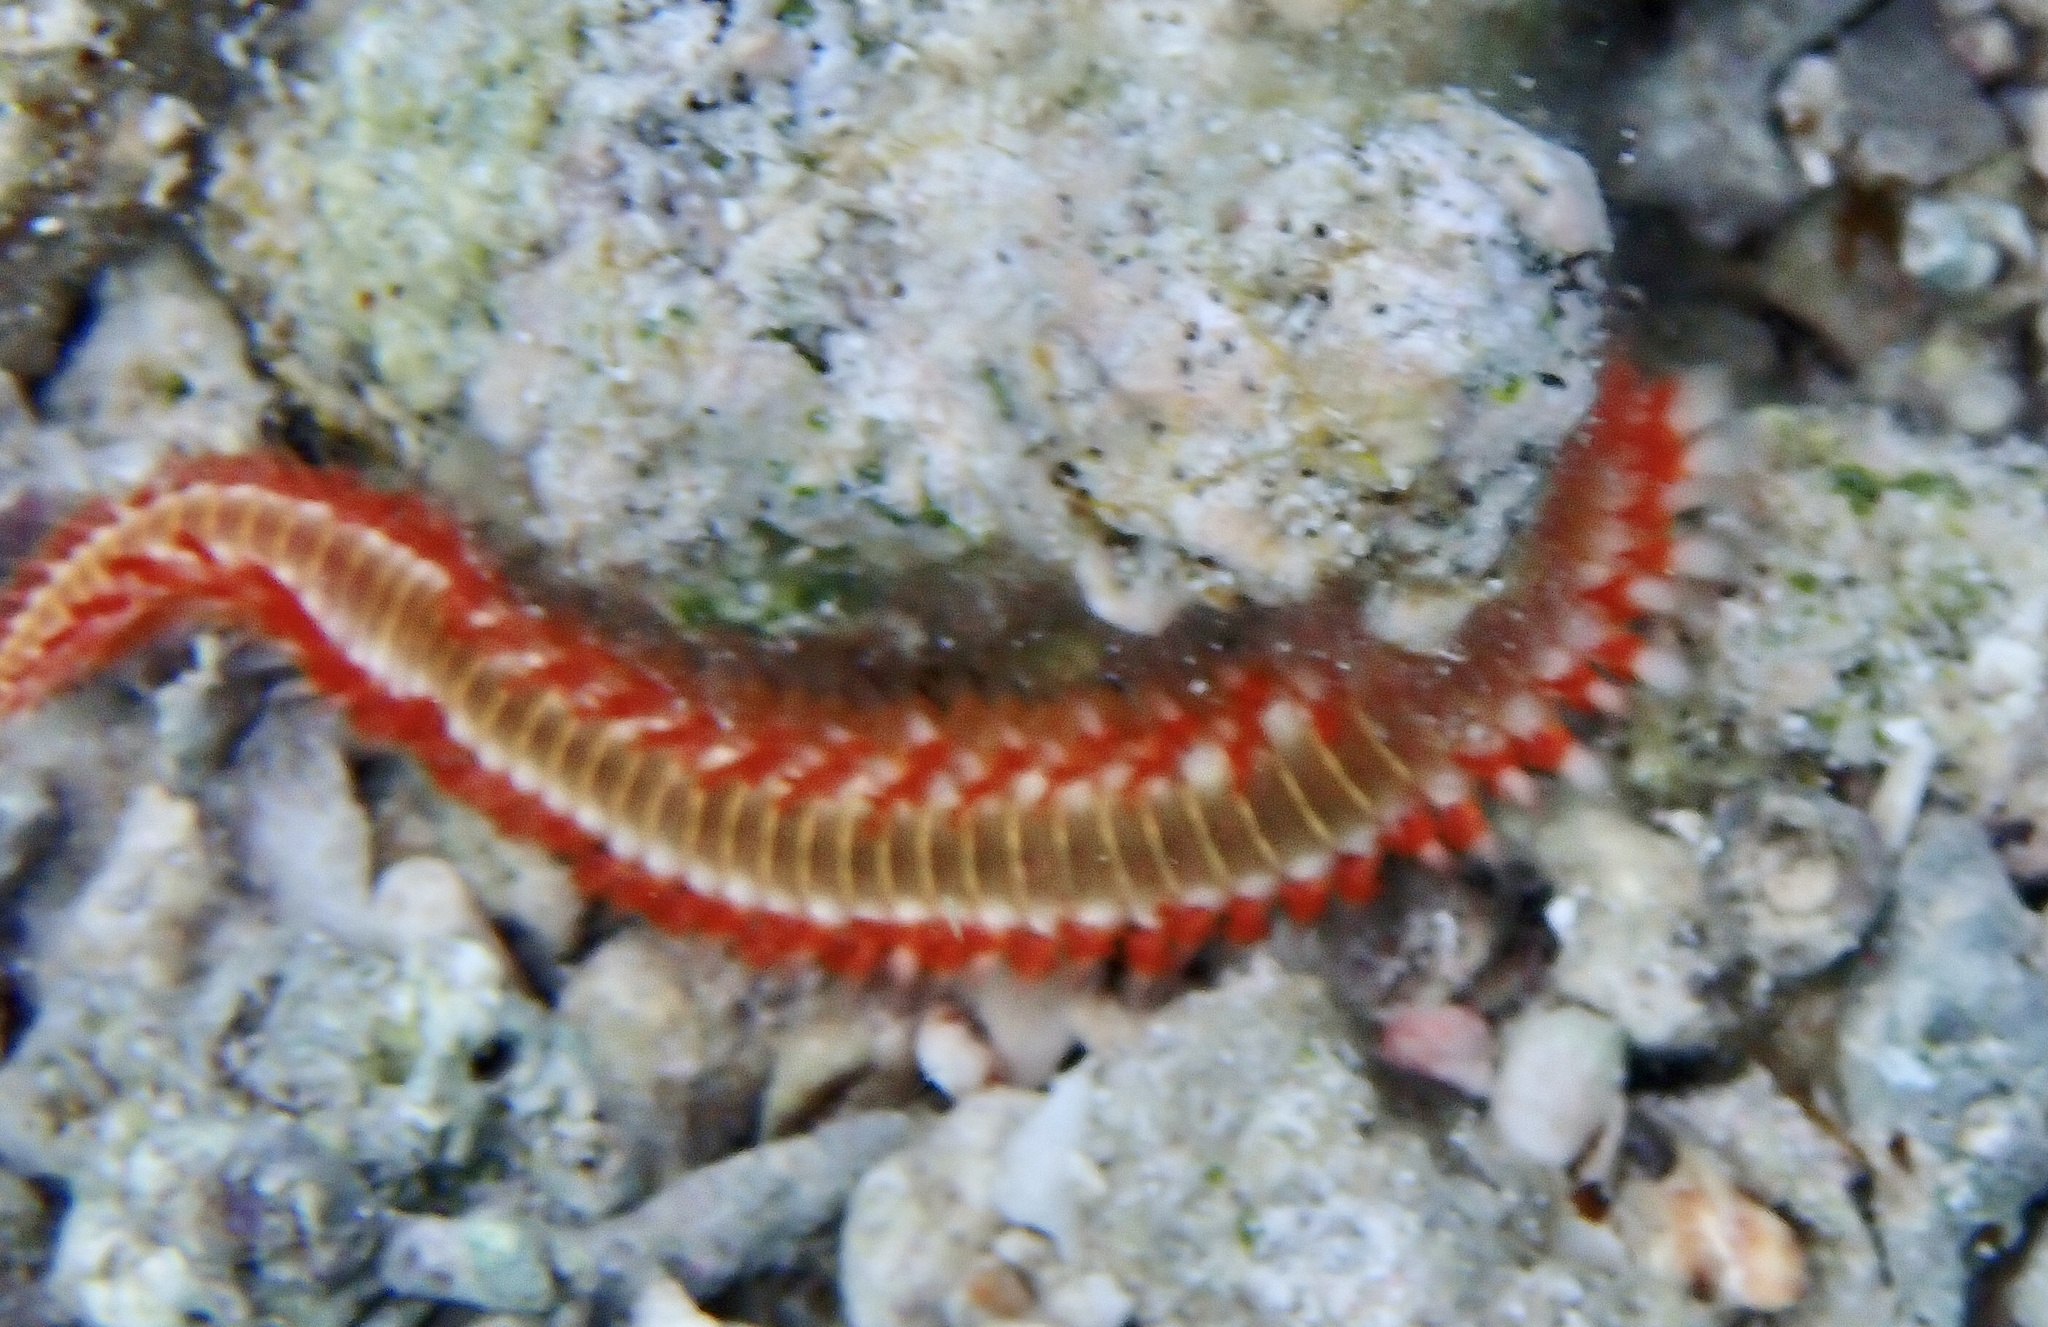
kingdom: Animalia
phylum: Annelida
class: Polychaeta
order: Amphinomida
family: Amphinomidae
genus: Hermodice
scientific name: Hermodice carunculata
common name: Bearded fireworm
